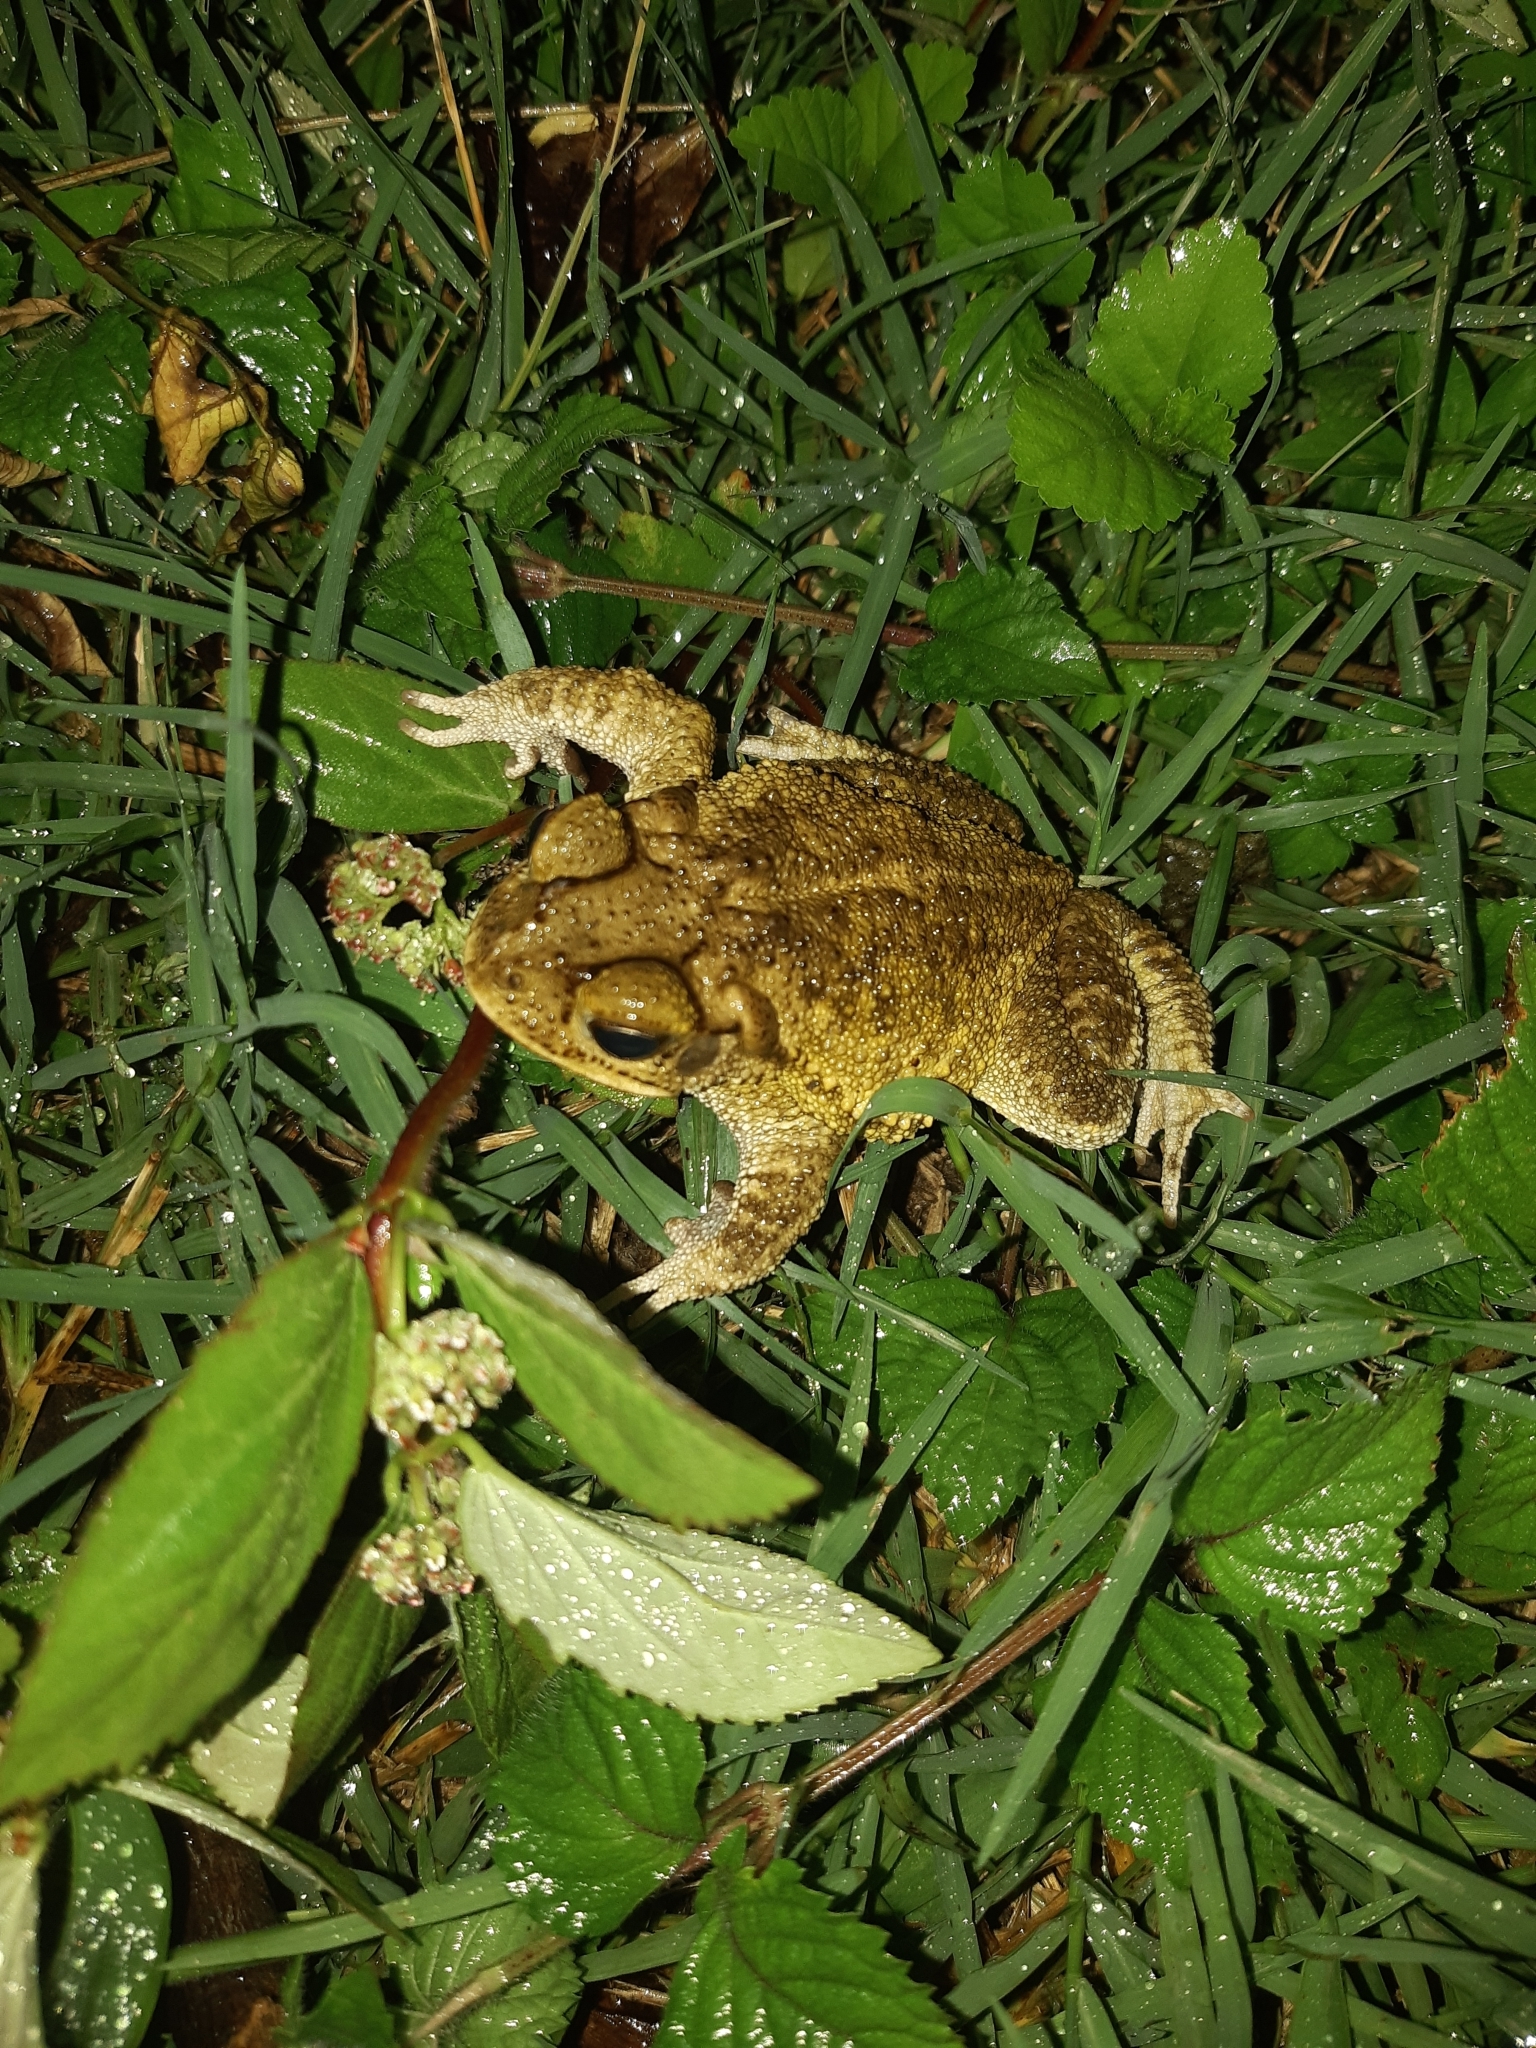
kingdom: Animalia
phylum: Chordata
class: Amphibia
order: Anura
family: Bufonidae
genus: Incilius
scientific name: Incilius luetkenii
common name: Yellow toad
